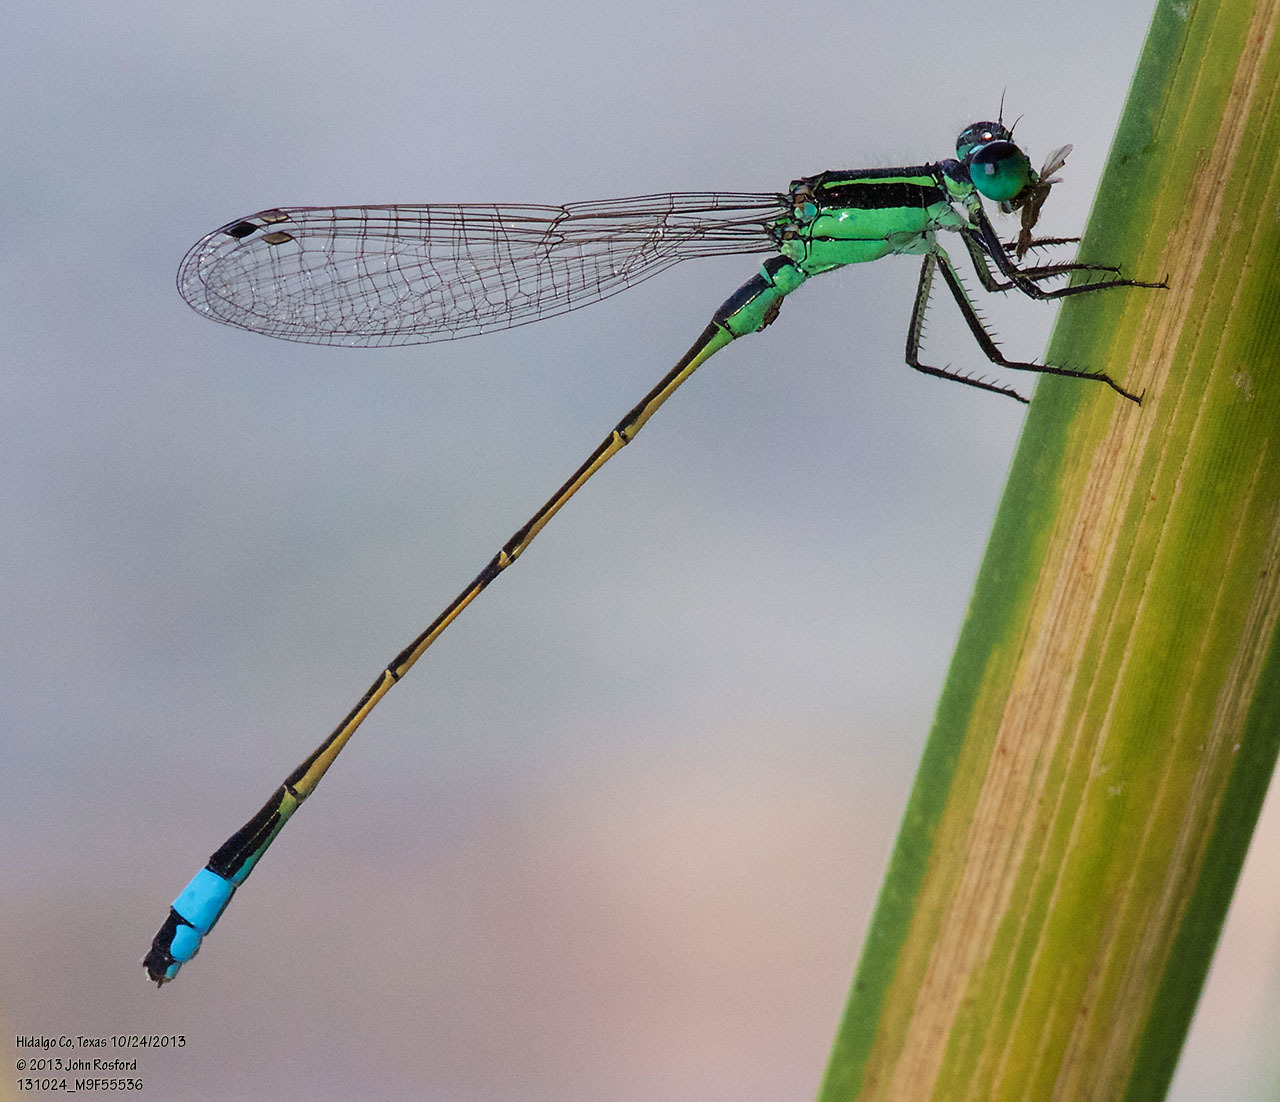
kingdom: Animalia
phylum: Arthropoda
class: Insecta
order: Odonata
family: Coenagrionidae
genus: Ischnura
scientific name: Ischnura ramburii
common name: Rambur's forktail
